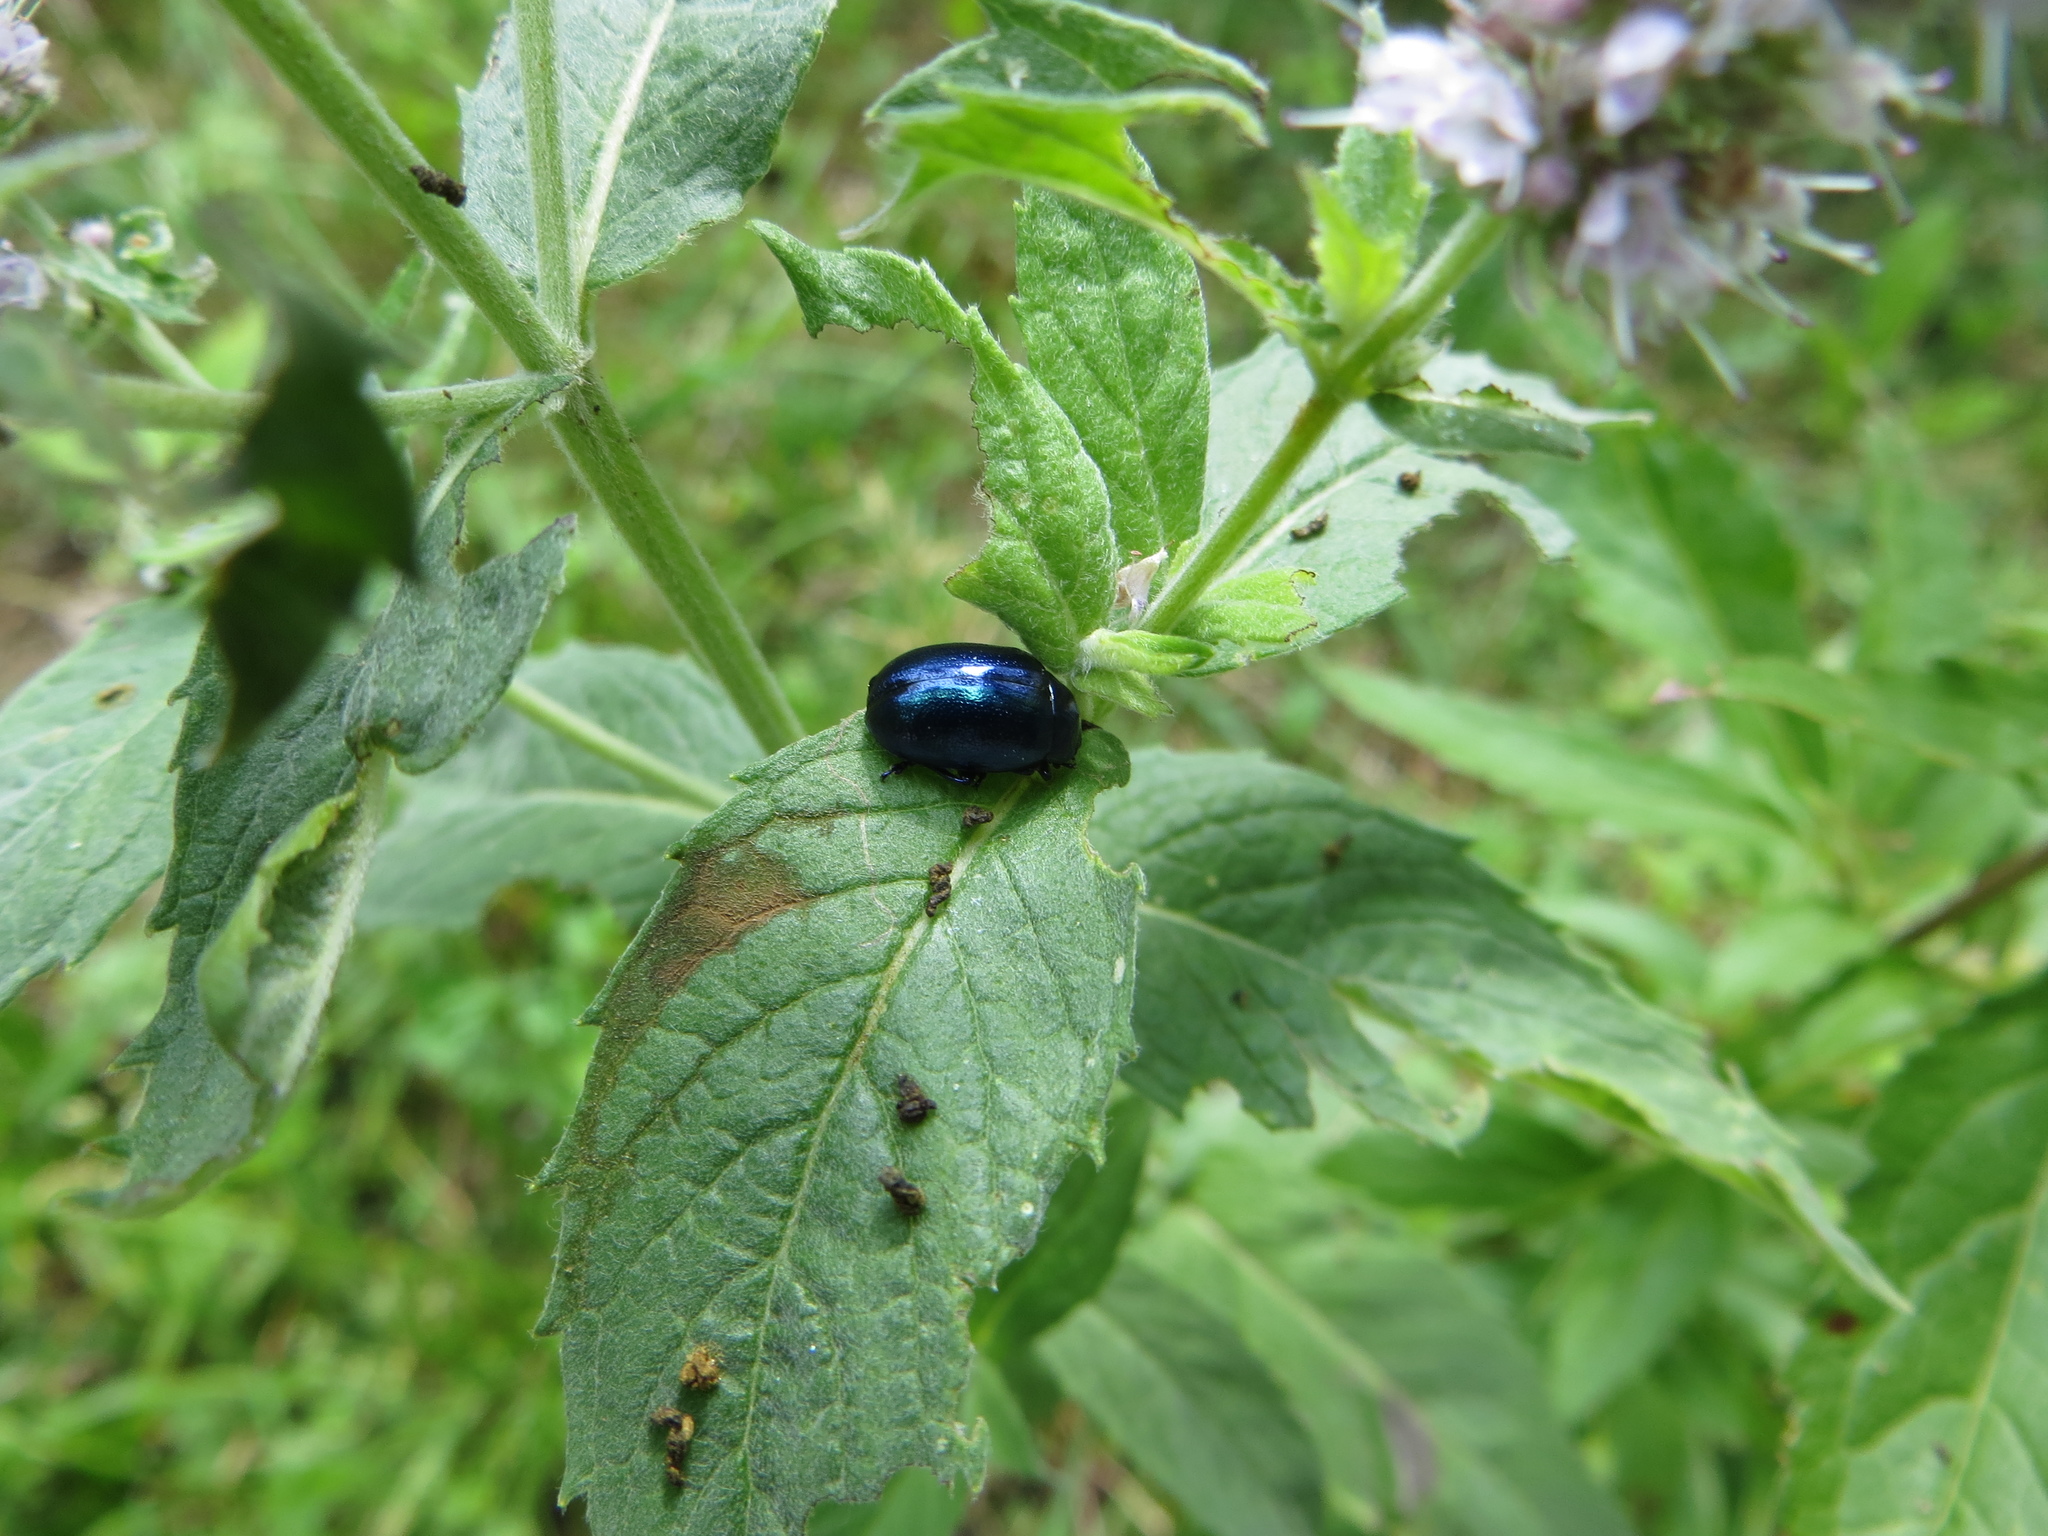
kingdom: Animalia
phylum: Arthropoda
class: Insecta
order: Coleoptera
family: Chrysomelidae
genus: Chrysolina
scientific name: Chrysolina coerulans
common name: Blue mint beetle
